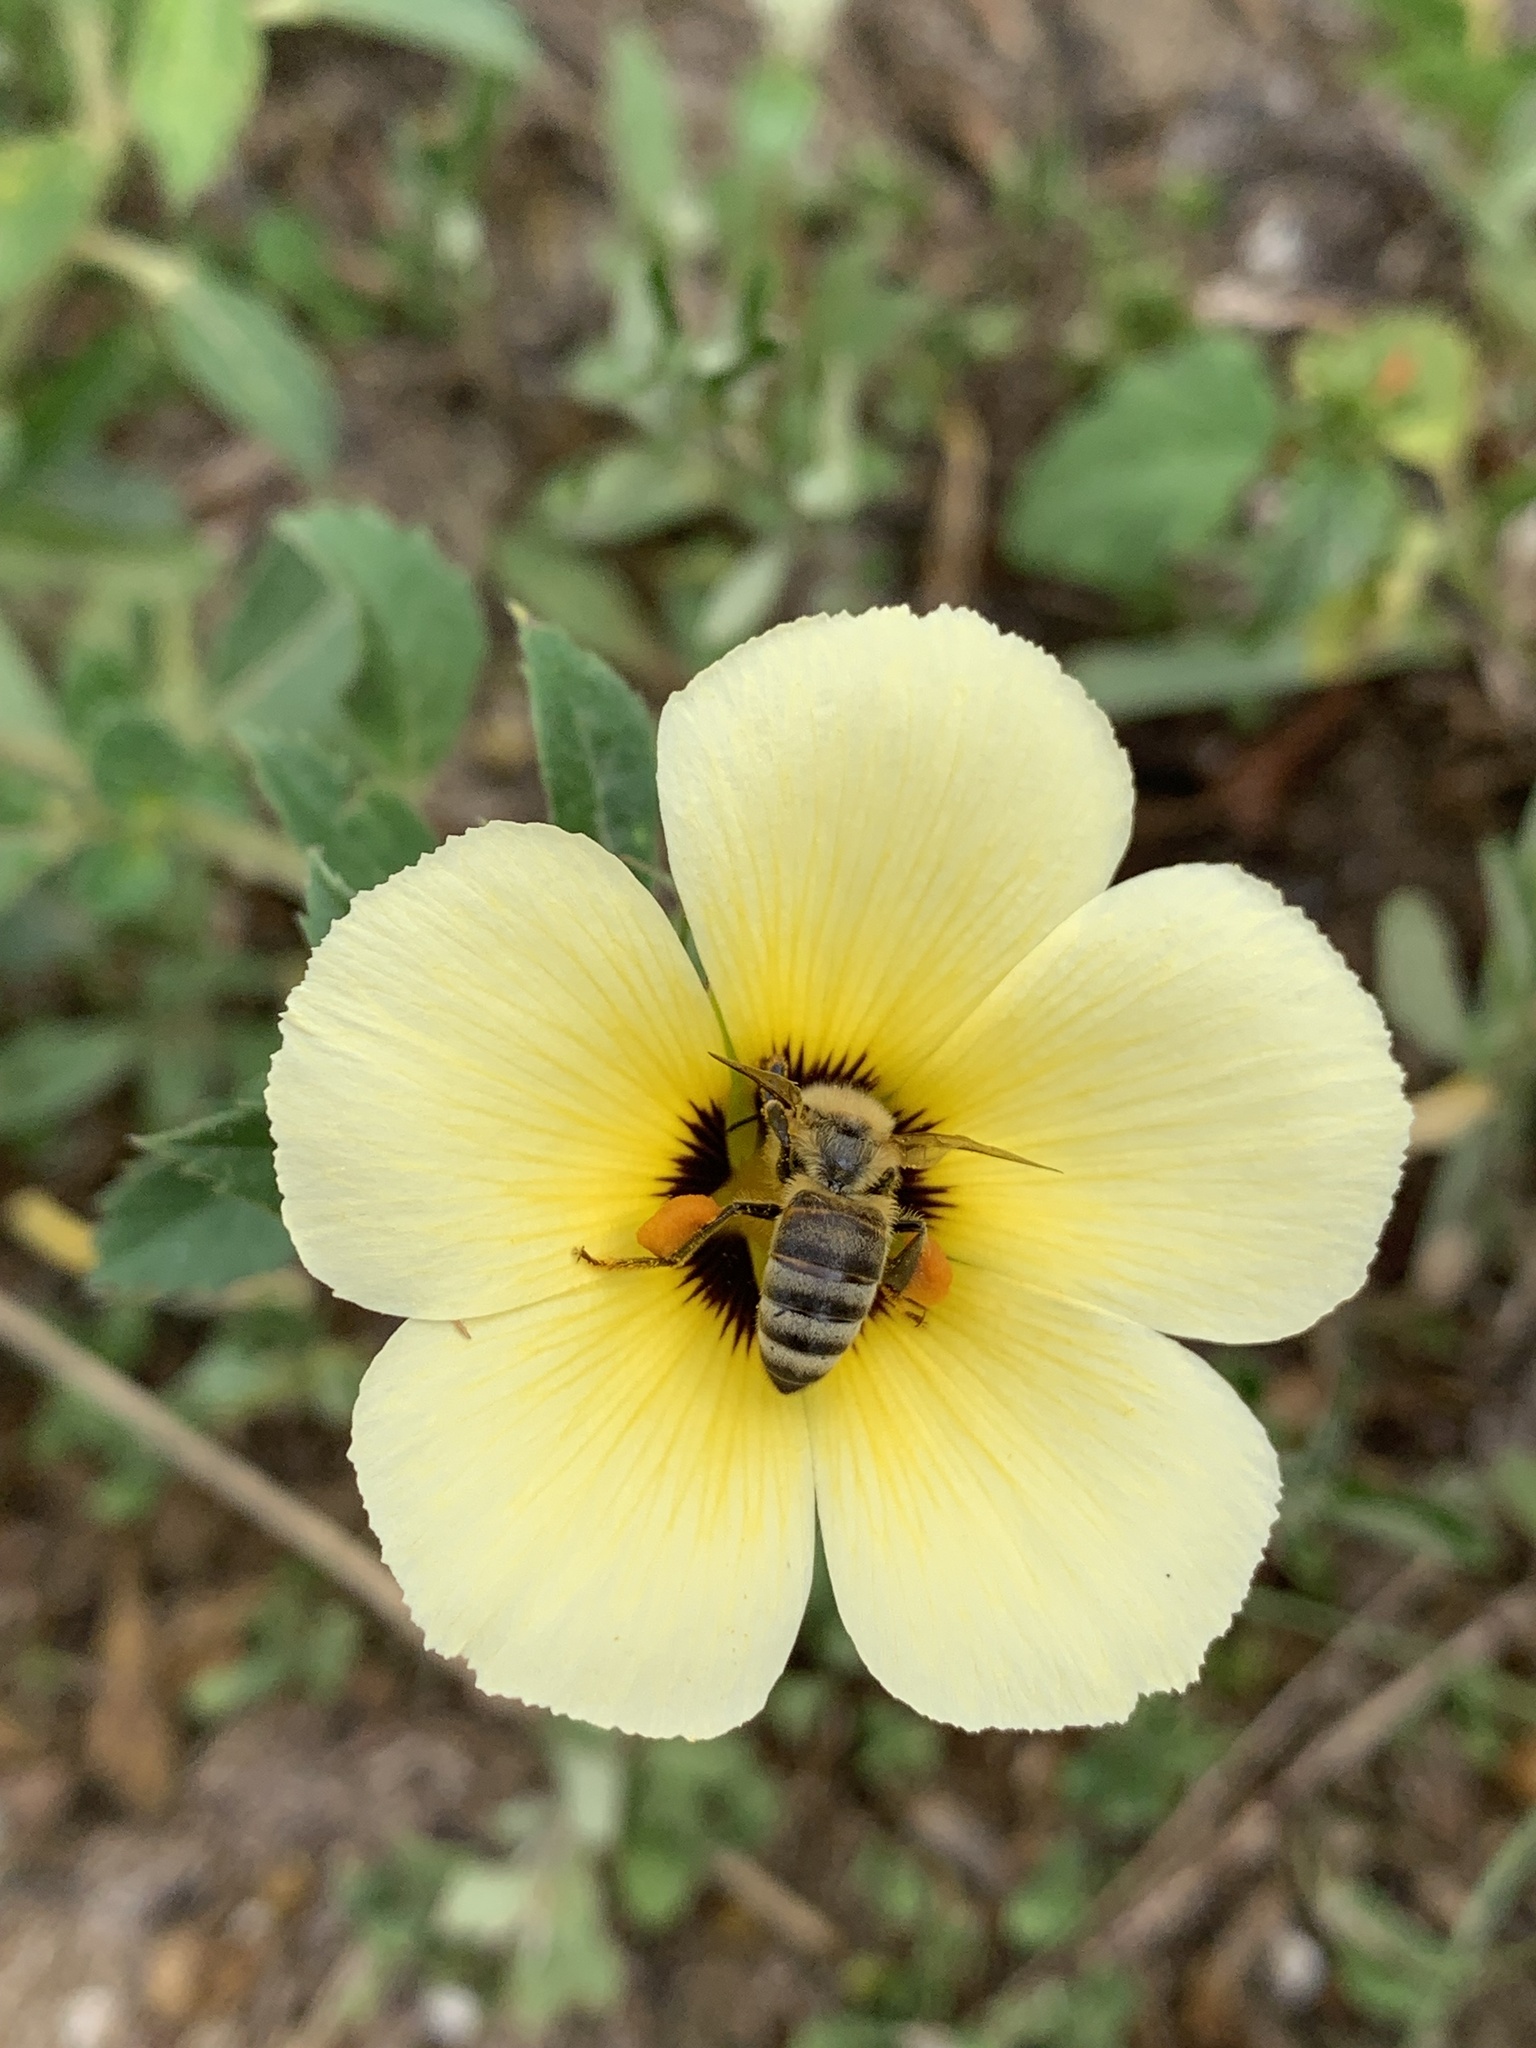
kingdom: Animalia
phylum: Arthropoda
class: Insecta
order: Hymenoptera
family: Apidae
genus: Apis
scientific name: Apis mellifera
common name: Honey bee
